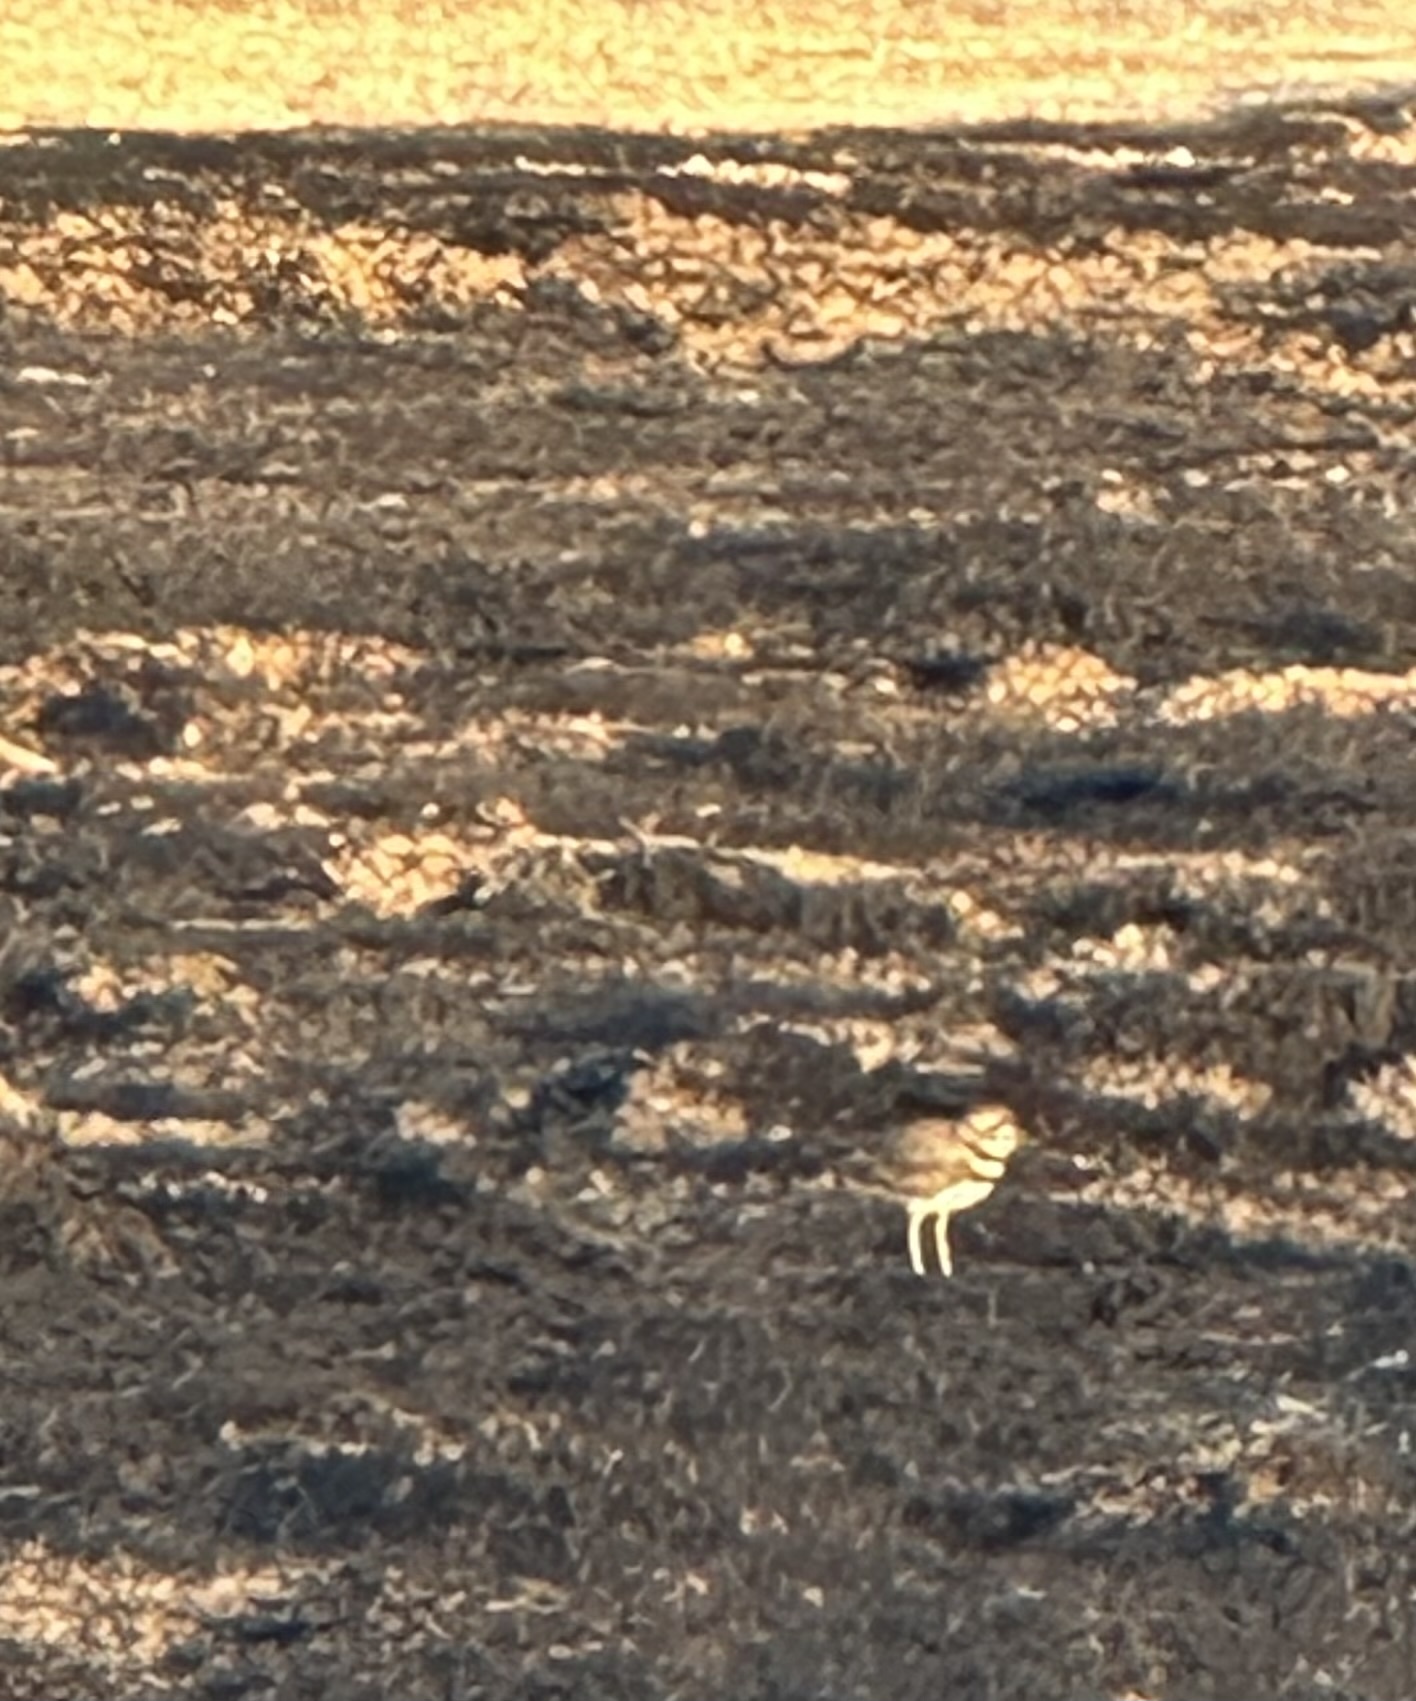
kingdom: Animalia
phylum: Chordata
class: Aves
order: Charadriiformes
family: Charadriidae
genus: Charadrius
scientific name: Charadrius vociferus
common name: Killdeer
